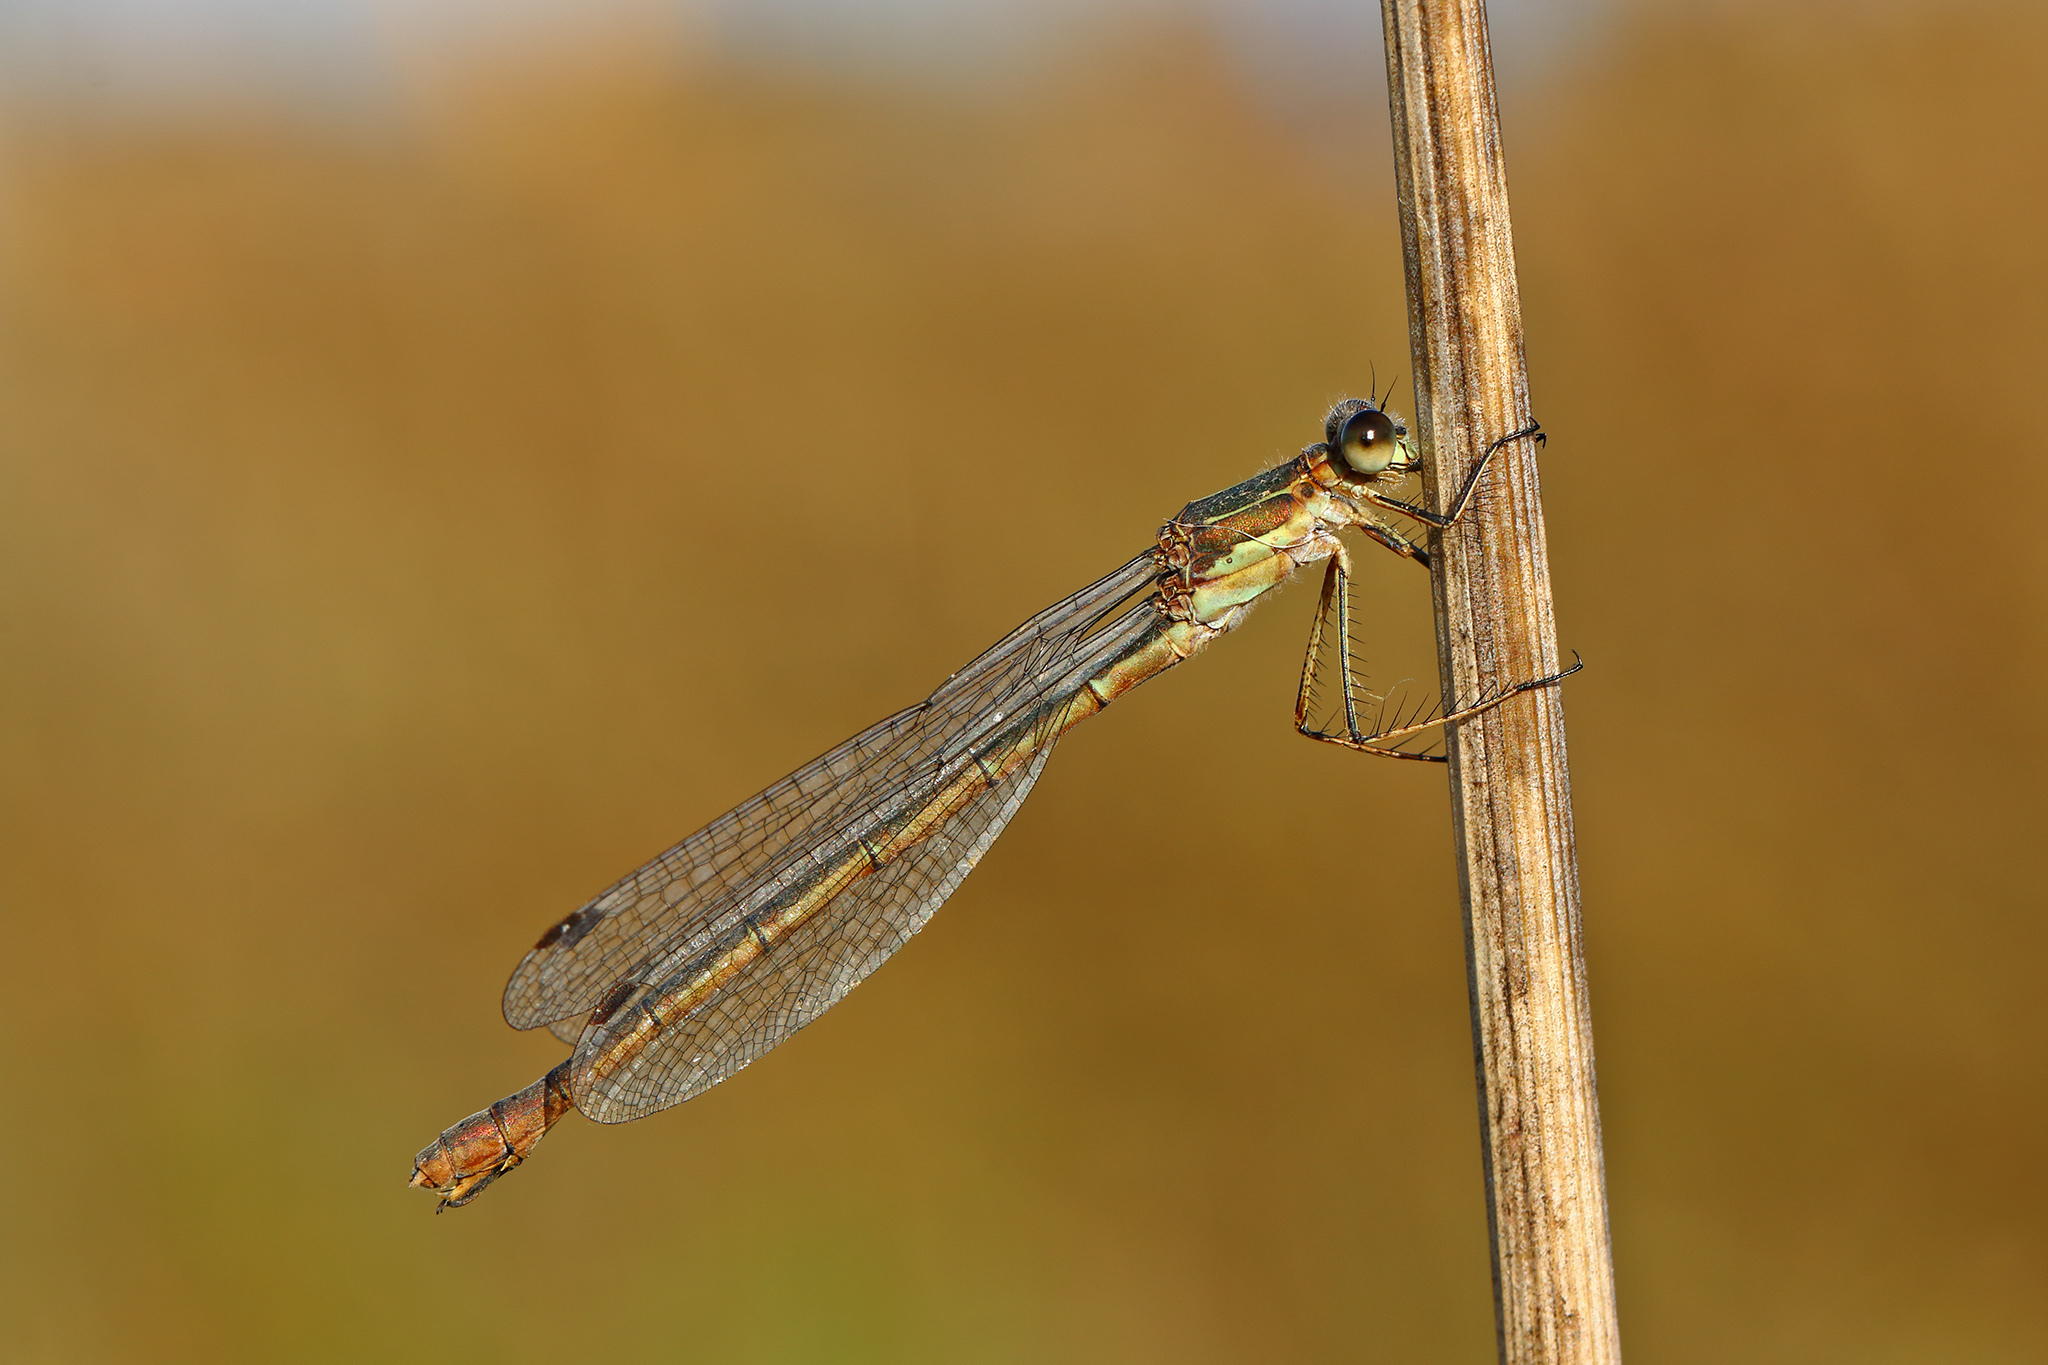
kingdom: Animalia
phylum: Arthropoda
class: Insecta
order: Odonata
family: Lestidae
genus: Lestes
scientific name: Lestes sponsa
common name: Common spreadwing
